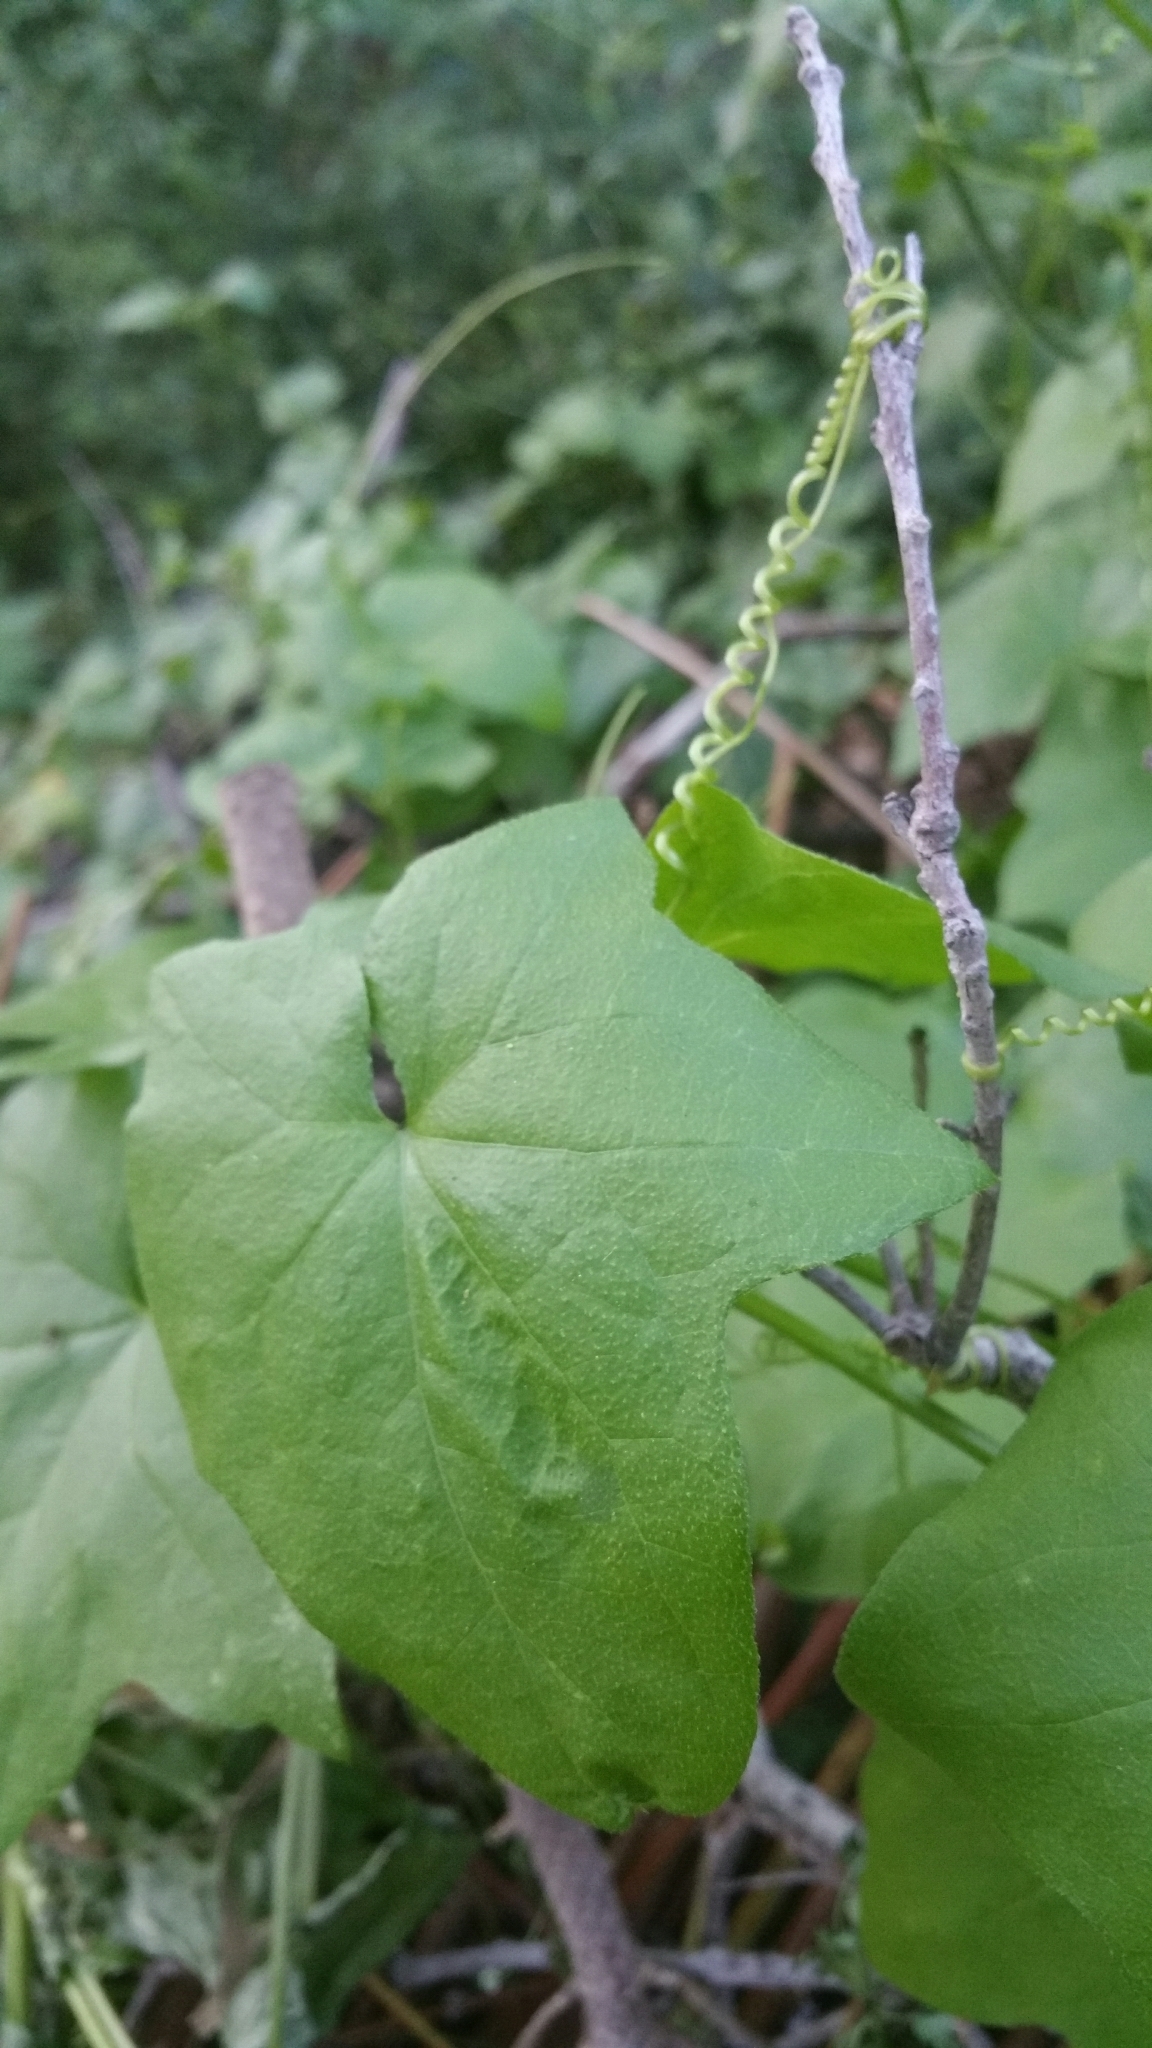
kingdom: Plantae
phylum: Tracheophyta
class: Magnoliopsida
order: Cucurbitales
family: Cucurbitaceae
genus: Marah
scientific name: Marah fabacea
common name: California manroot
